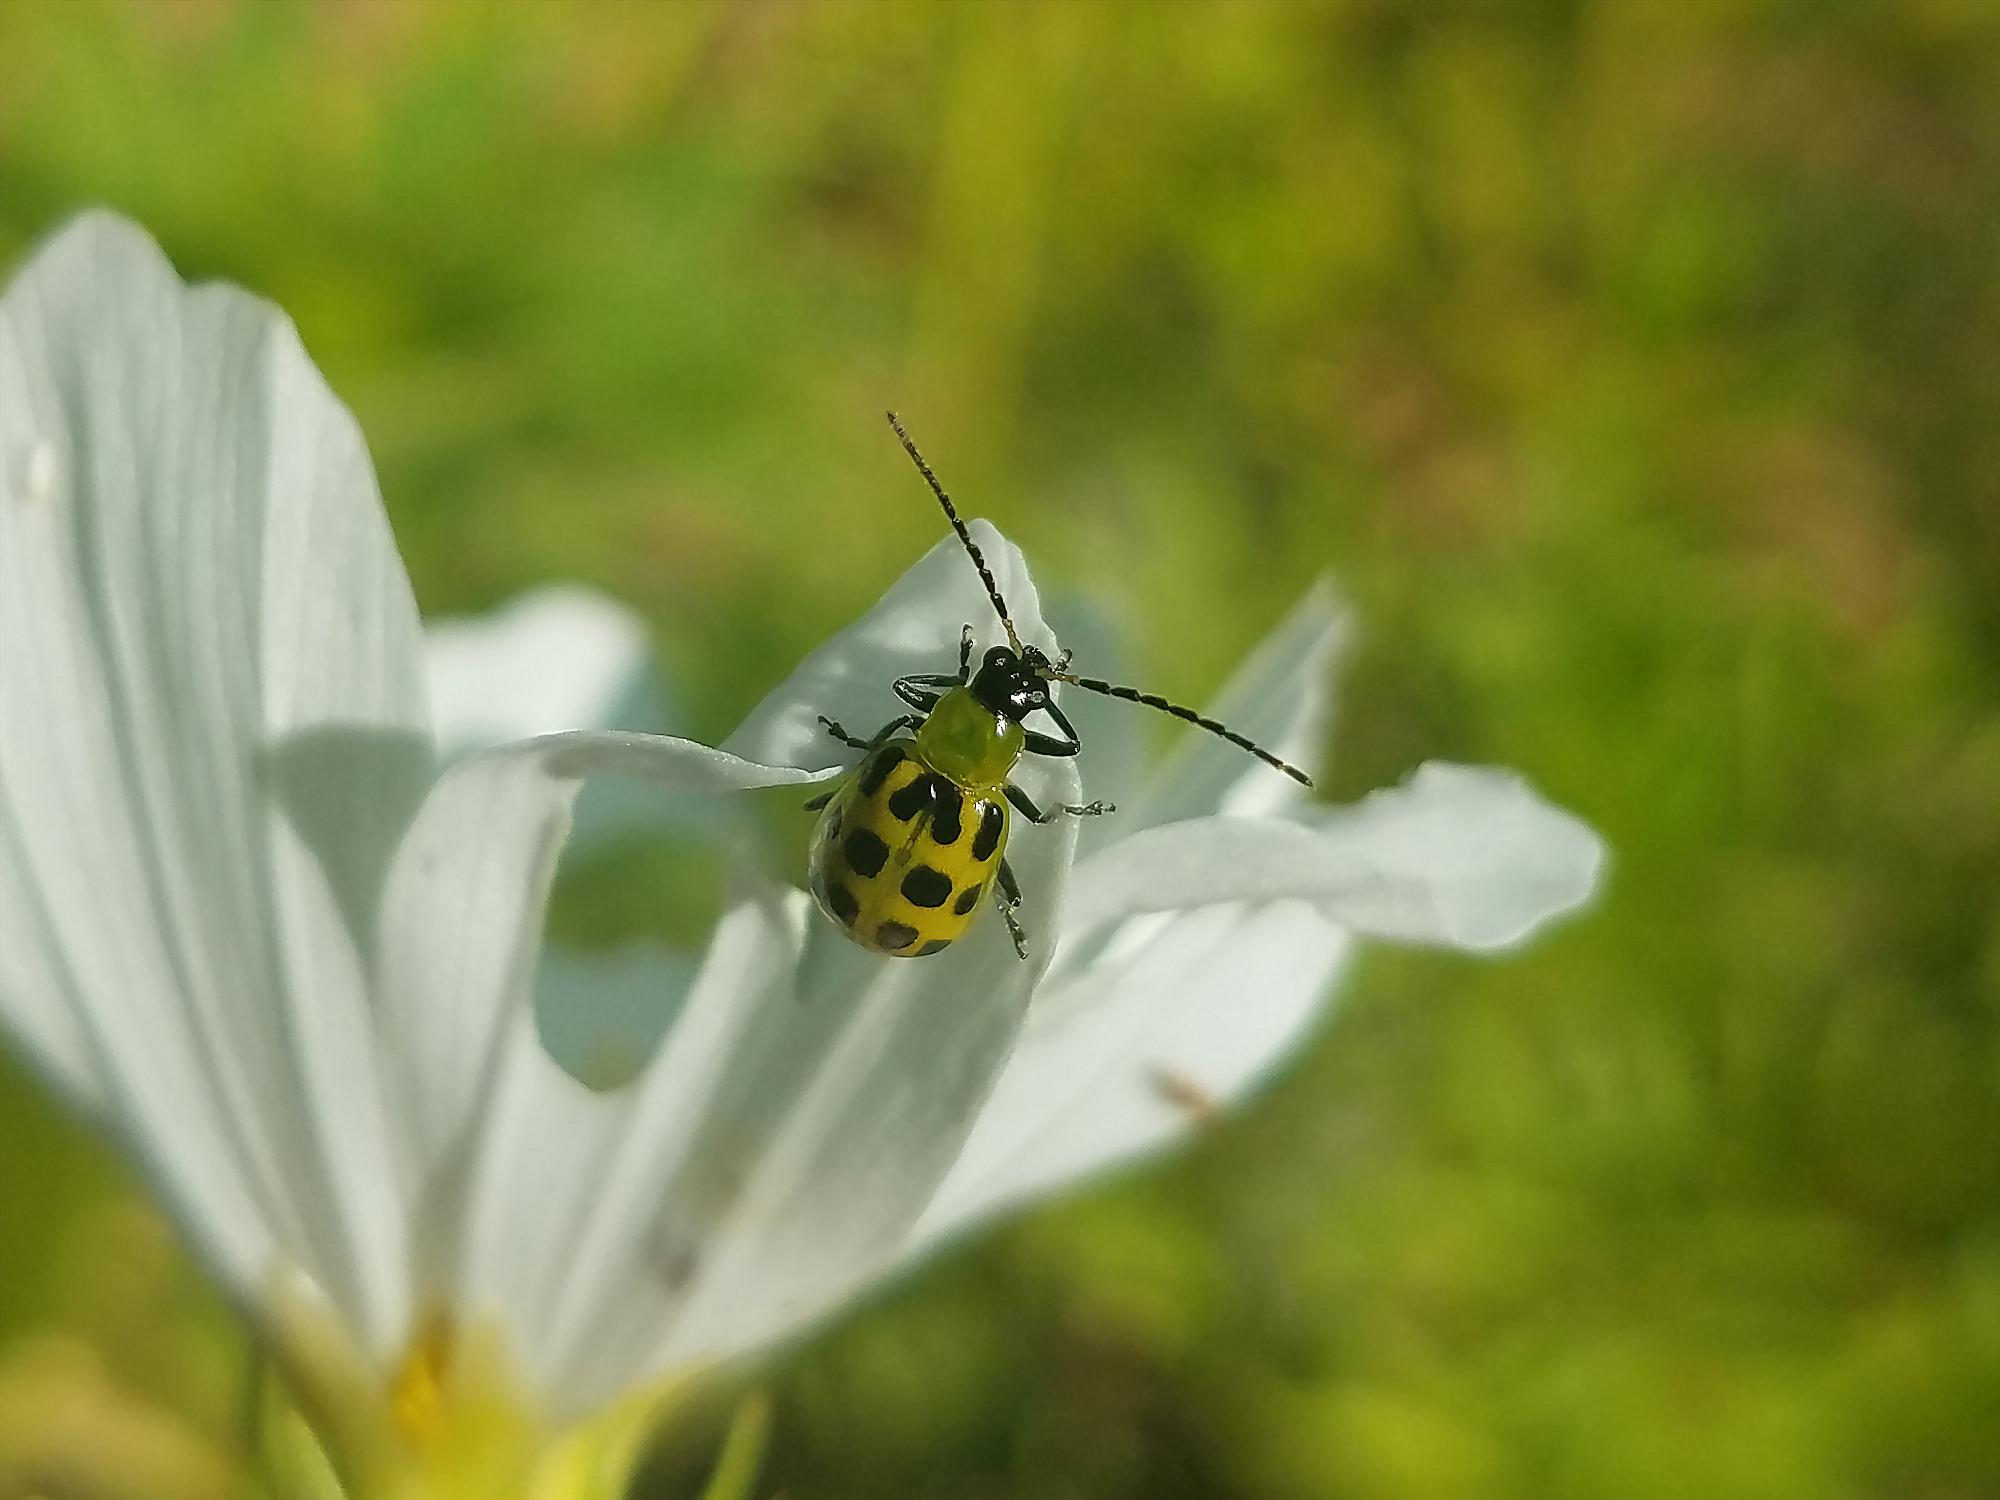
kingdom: Animalia
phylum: Arthropoda
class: Insecta
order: Coleoptera
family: Chrysomelidae
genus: Diabrotica
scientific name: Diabrotica undecimpunctata
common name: Spotted cucumber beetle
